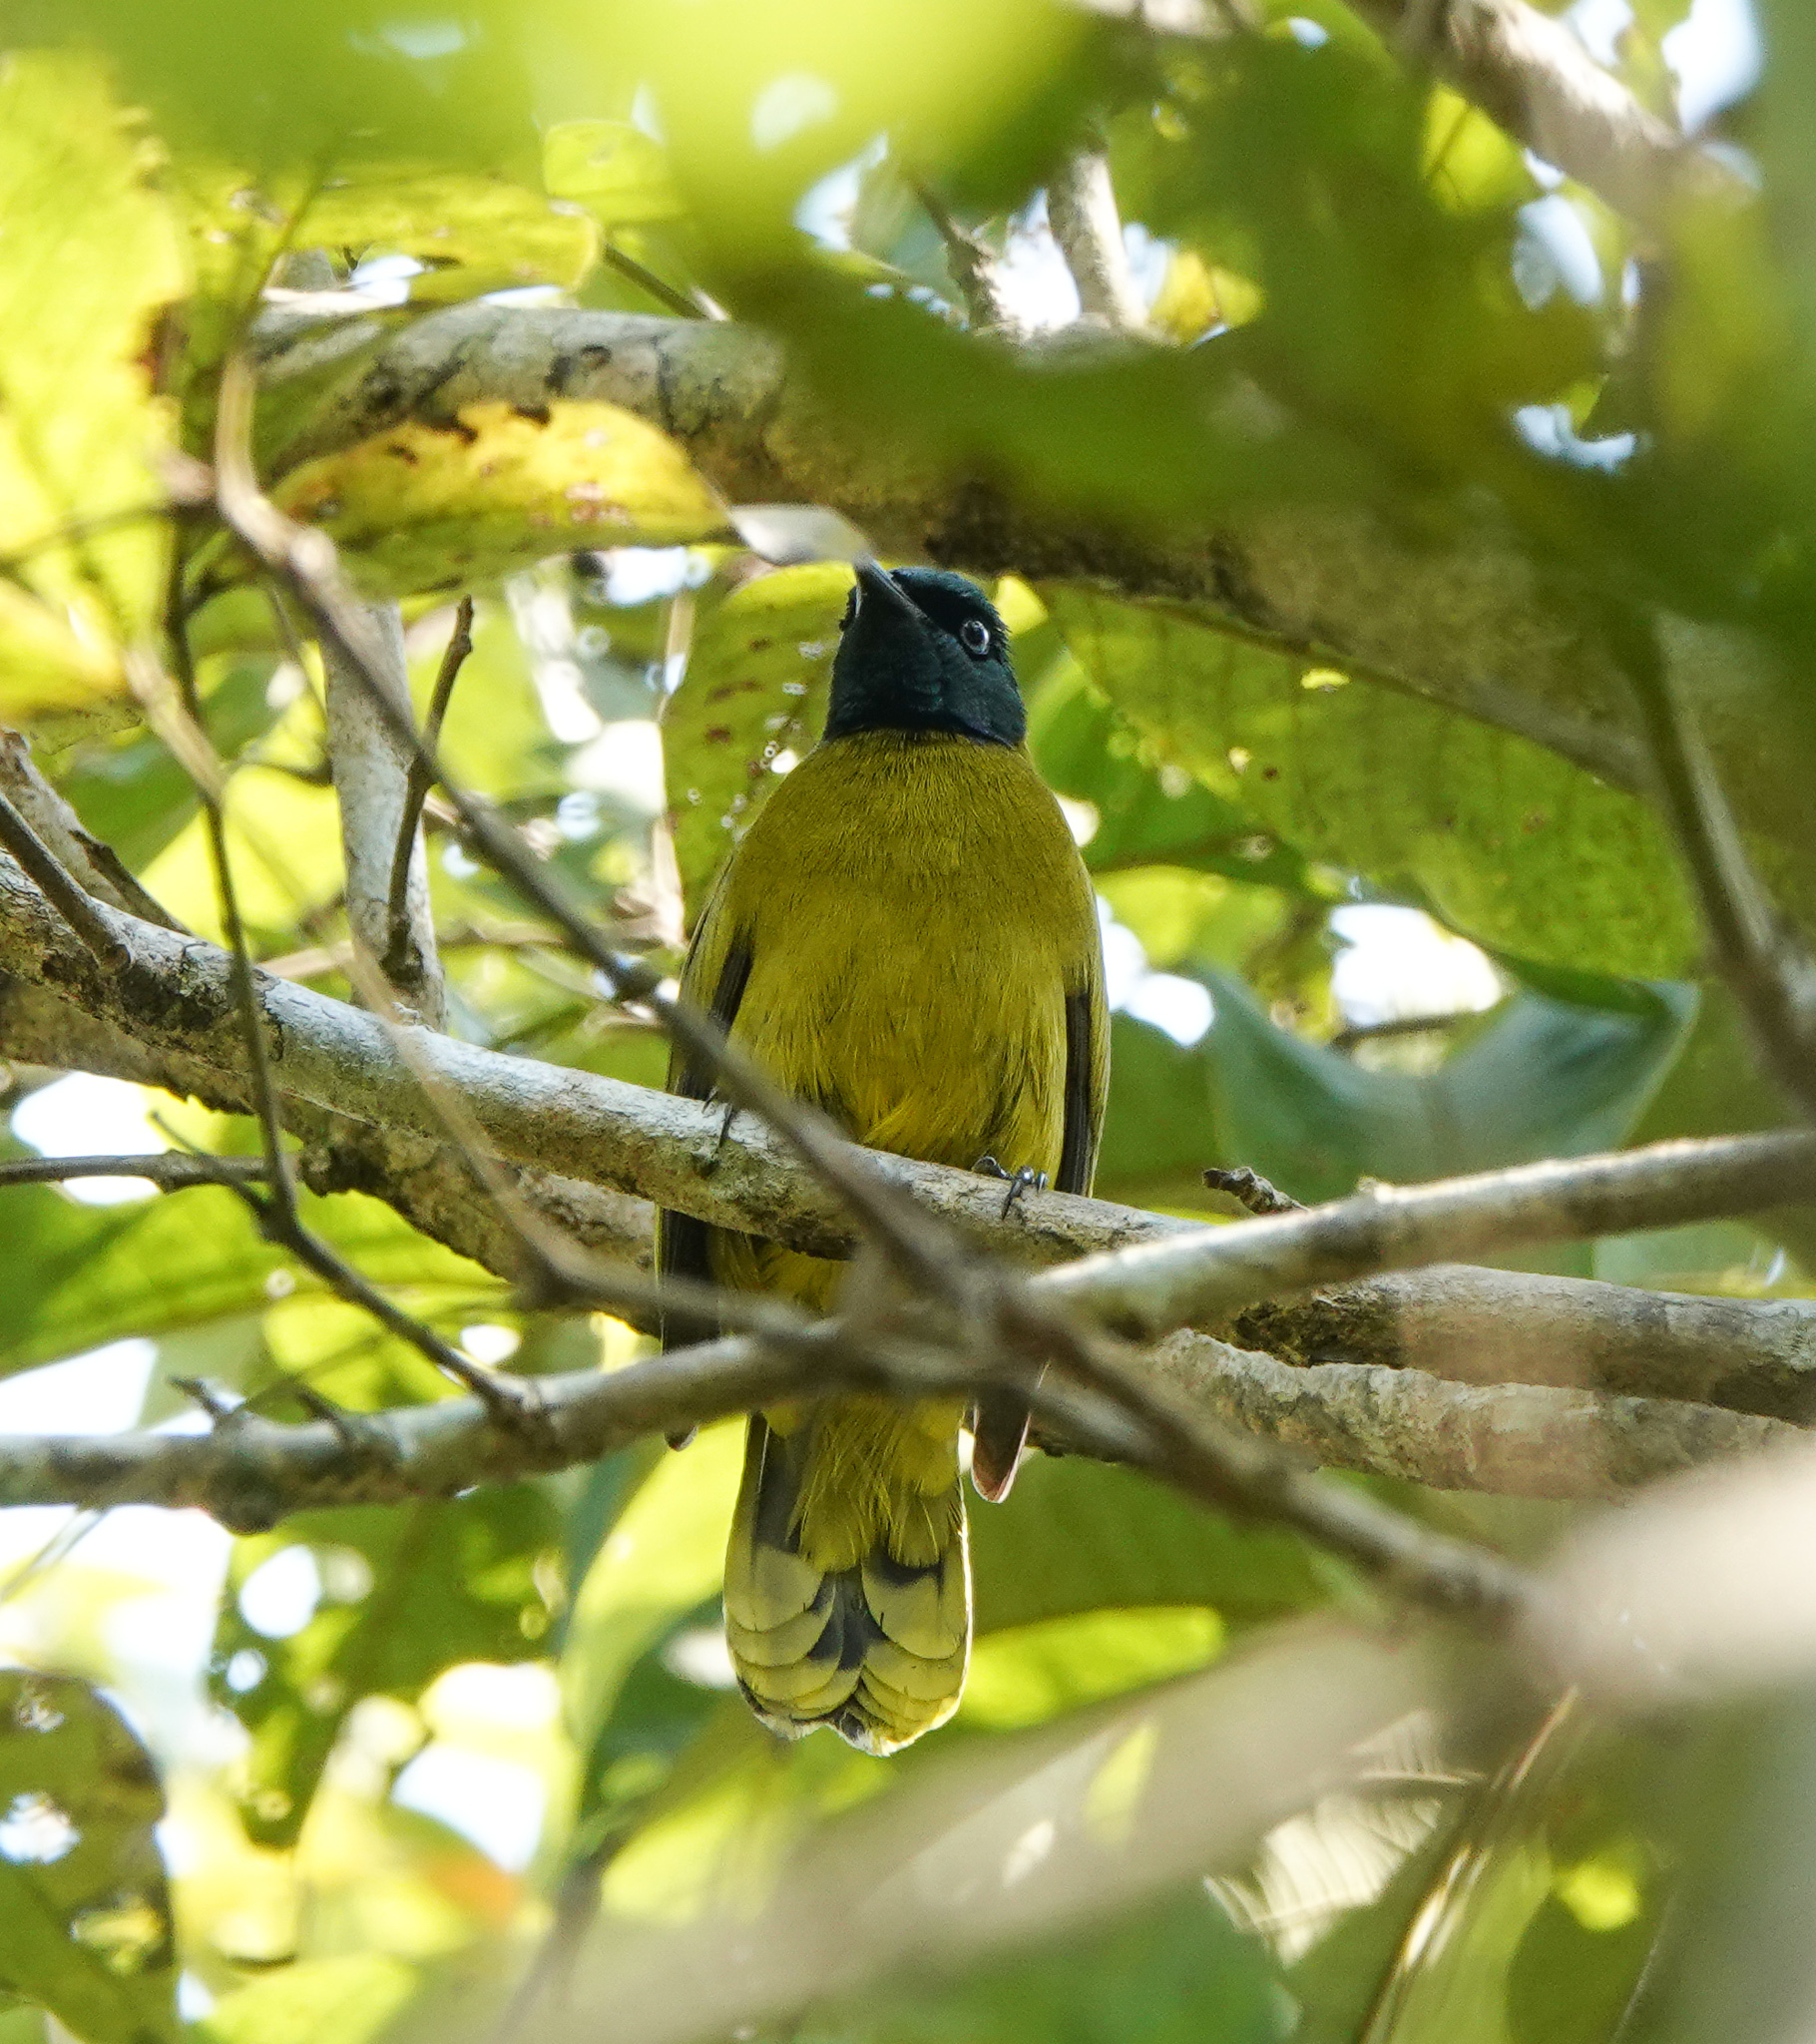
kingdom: Animalia
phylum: Chordata
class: Aves
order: Passeriformes
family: Pycnonotidae
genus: Microtarsus
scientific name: Microtarsus
